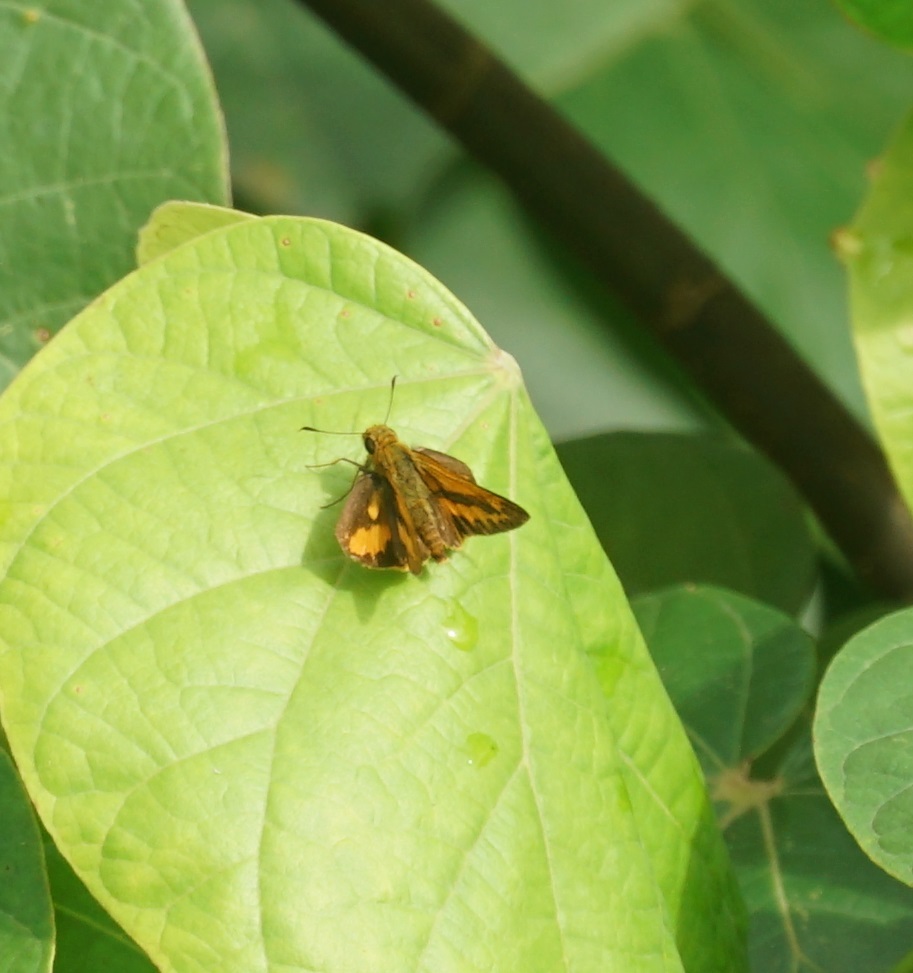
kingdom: Animalia
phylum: Arthropoda
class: Insecta
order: Lepidoptera
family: Hesperiidae
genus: Telicota
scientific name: Telicota augias
